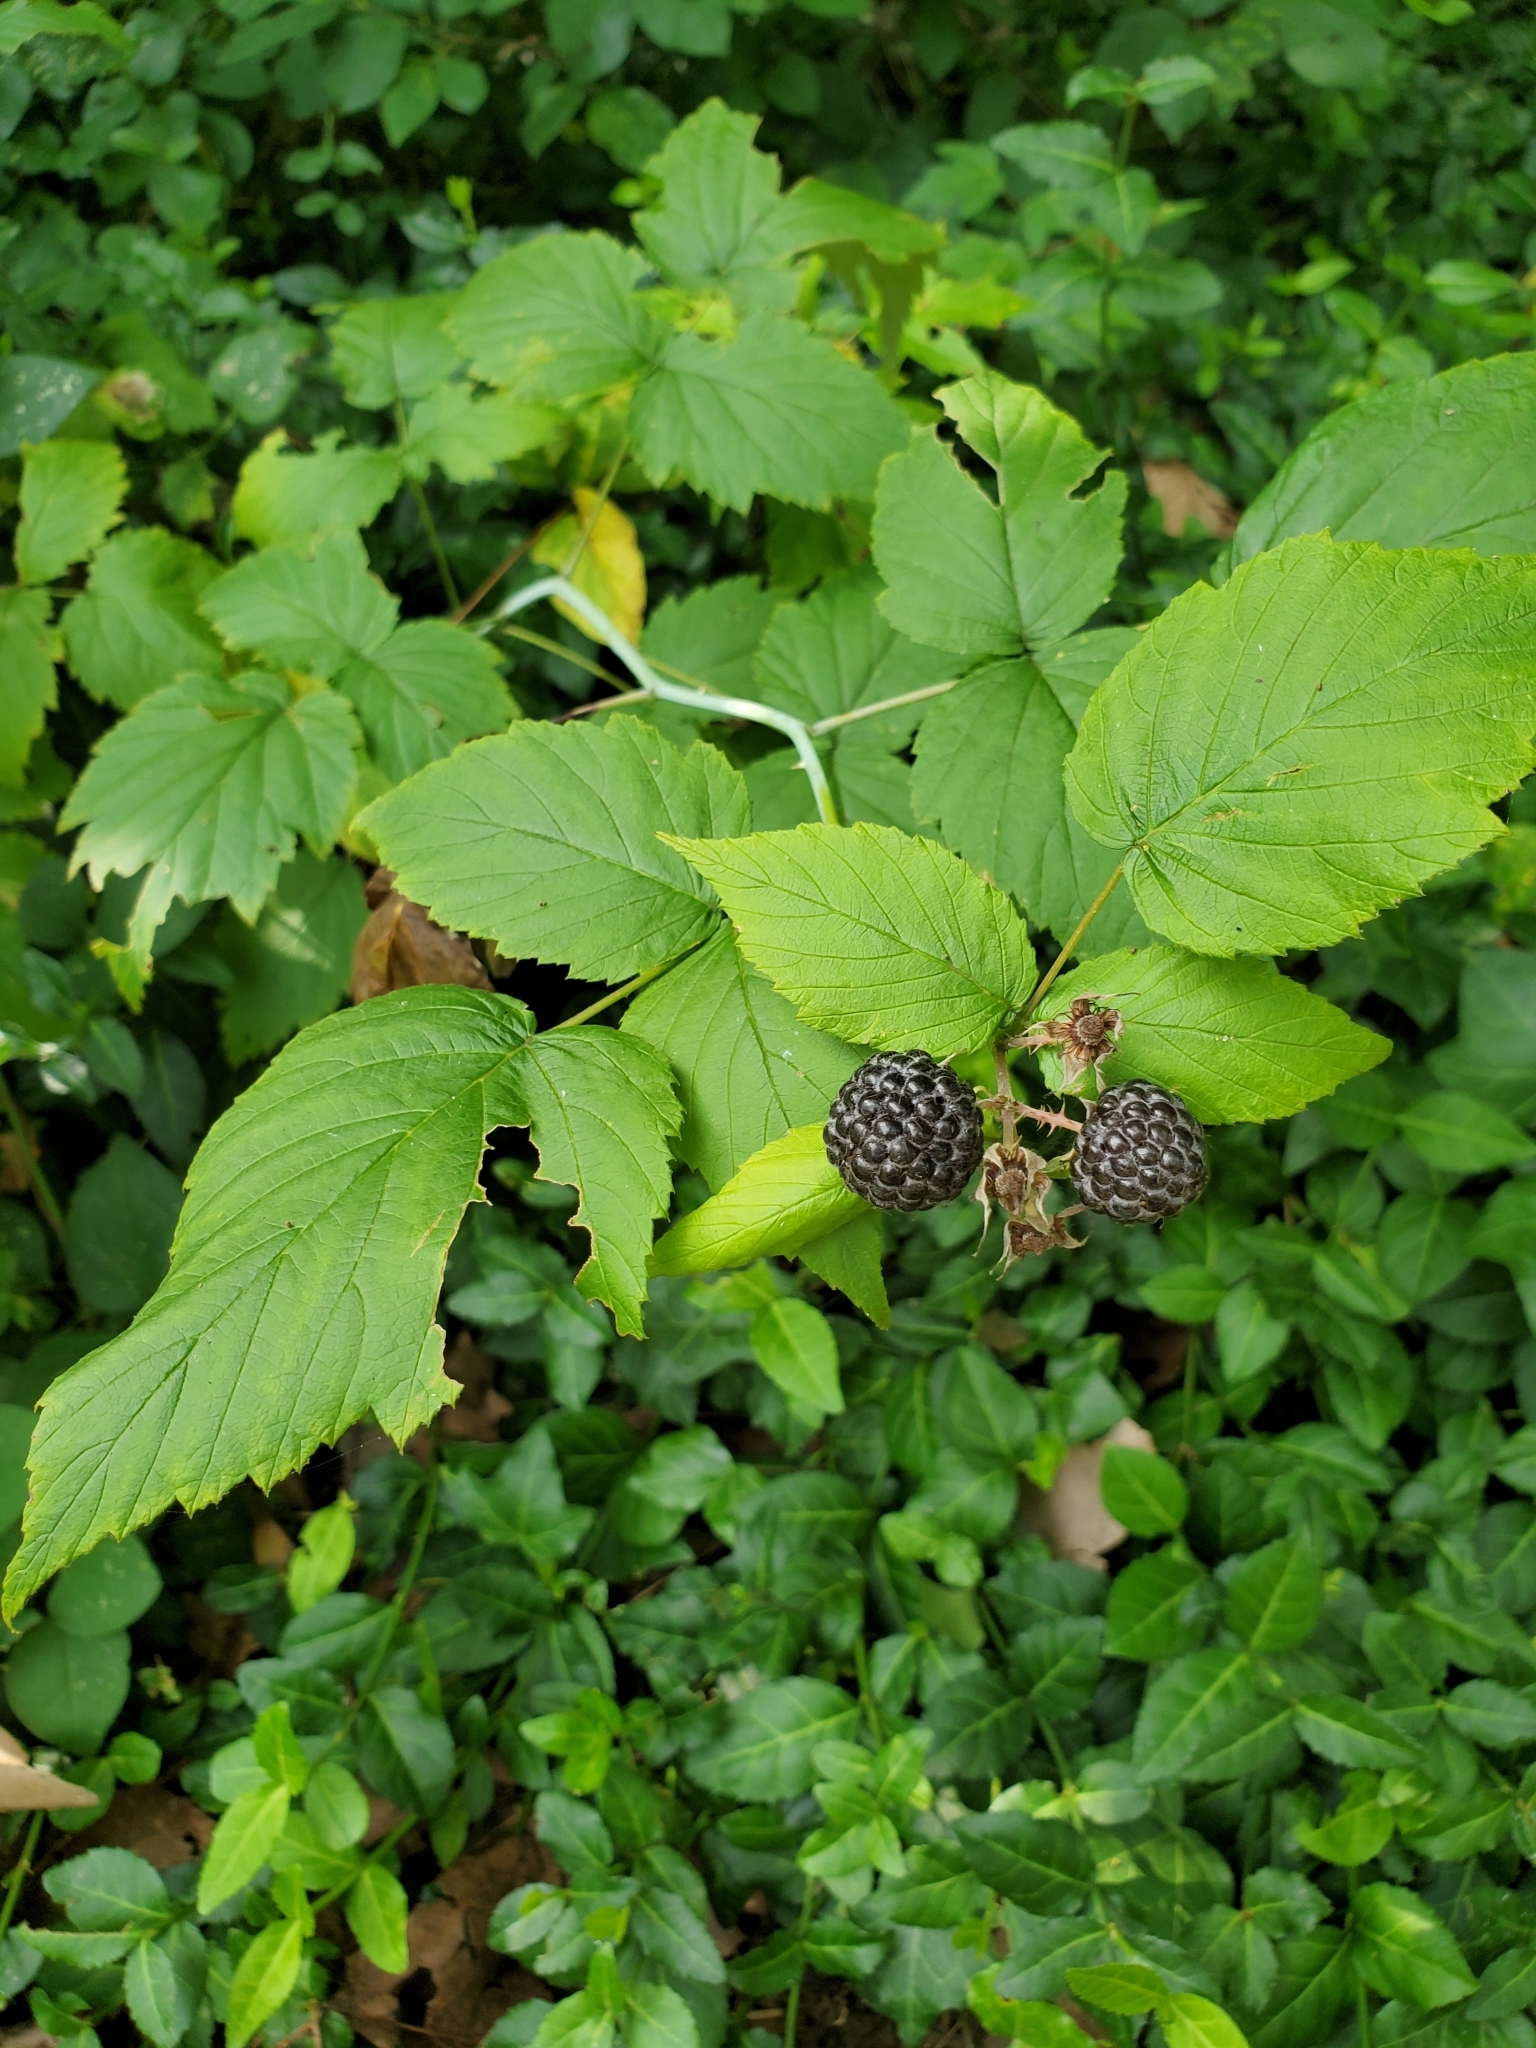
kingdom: Plantae
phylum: Tracheophyta
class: Magnoliopsida
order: Rosales
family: Rosaceae
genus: Rubus
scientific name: Rubus occidentalis
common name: Black raspberry
